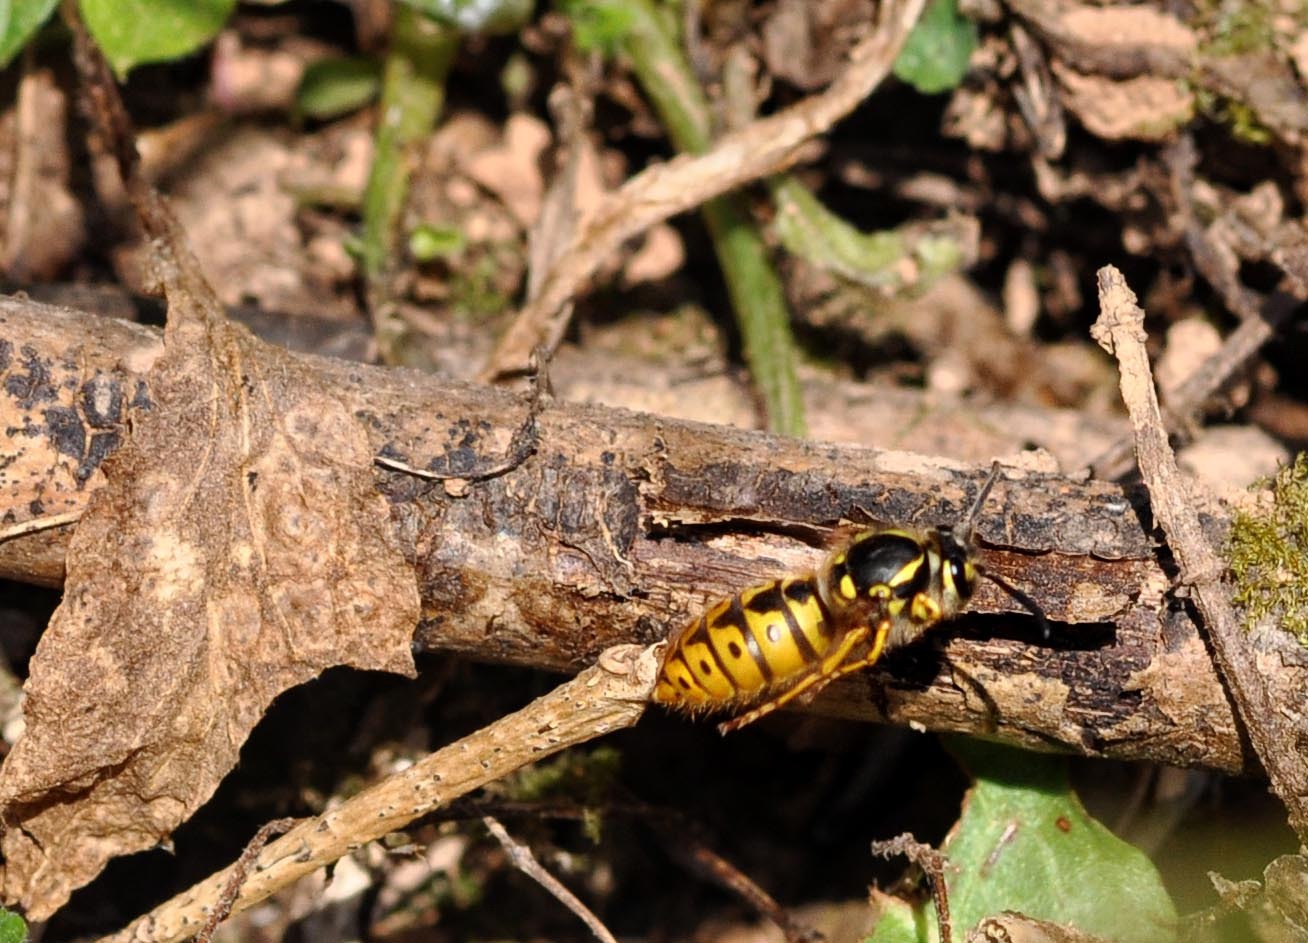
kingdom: Animalia
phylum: Arthropoda
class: Insecta
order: Hymenoptera
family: Vespidae
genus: Vespula
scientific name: Vespula germanica
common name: German wasp
